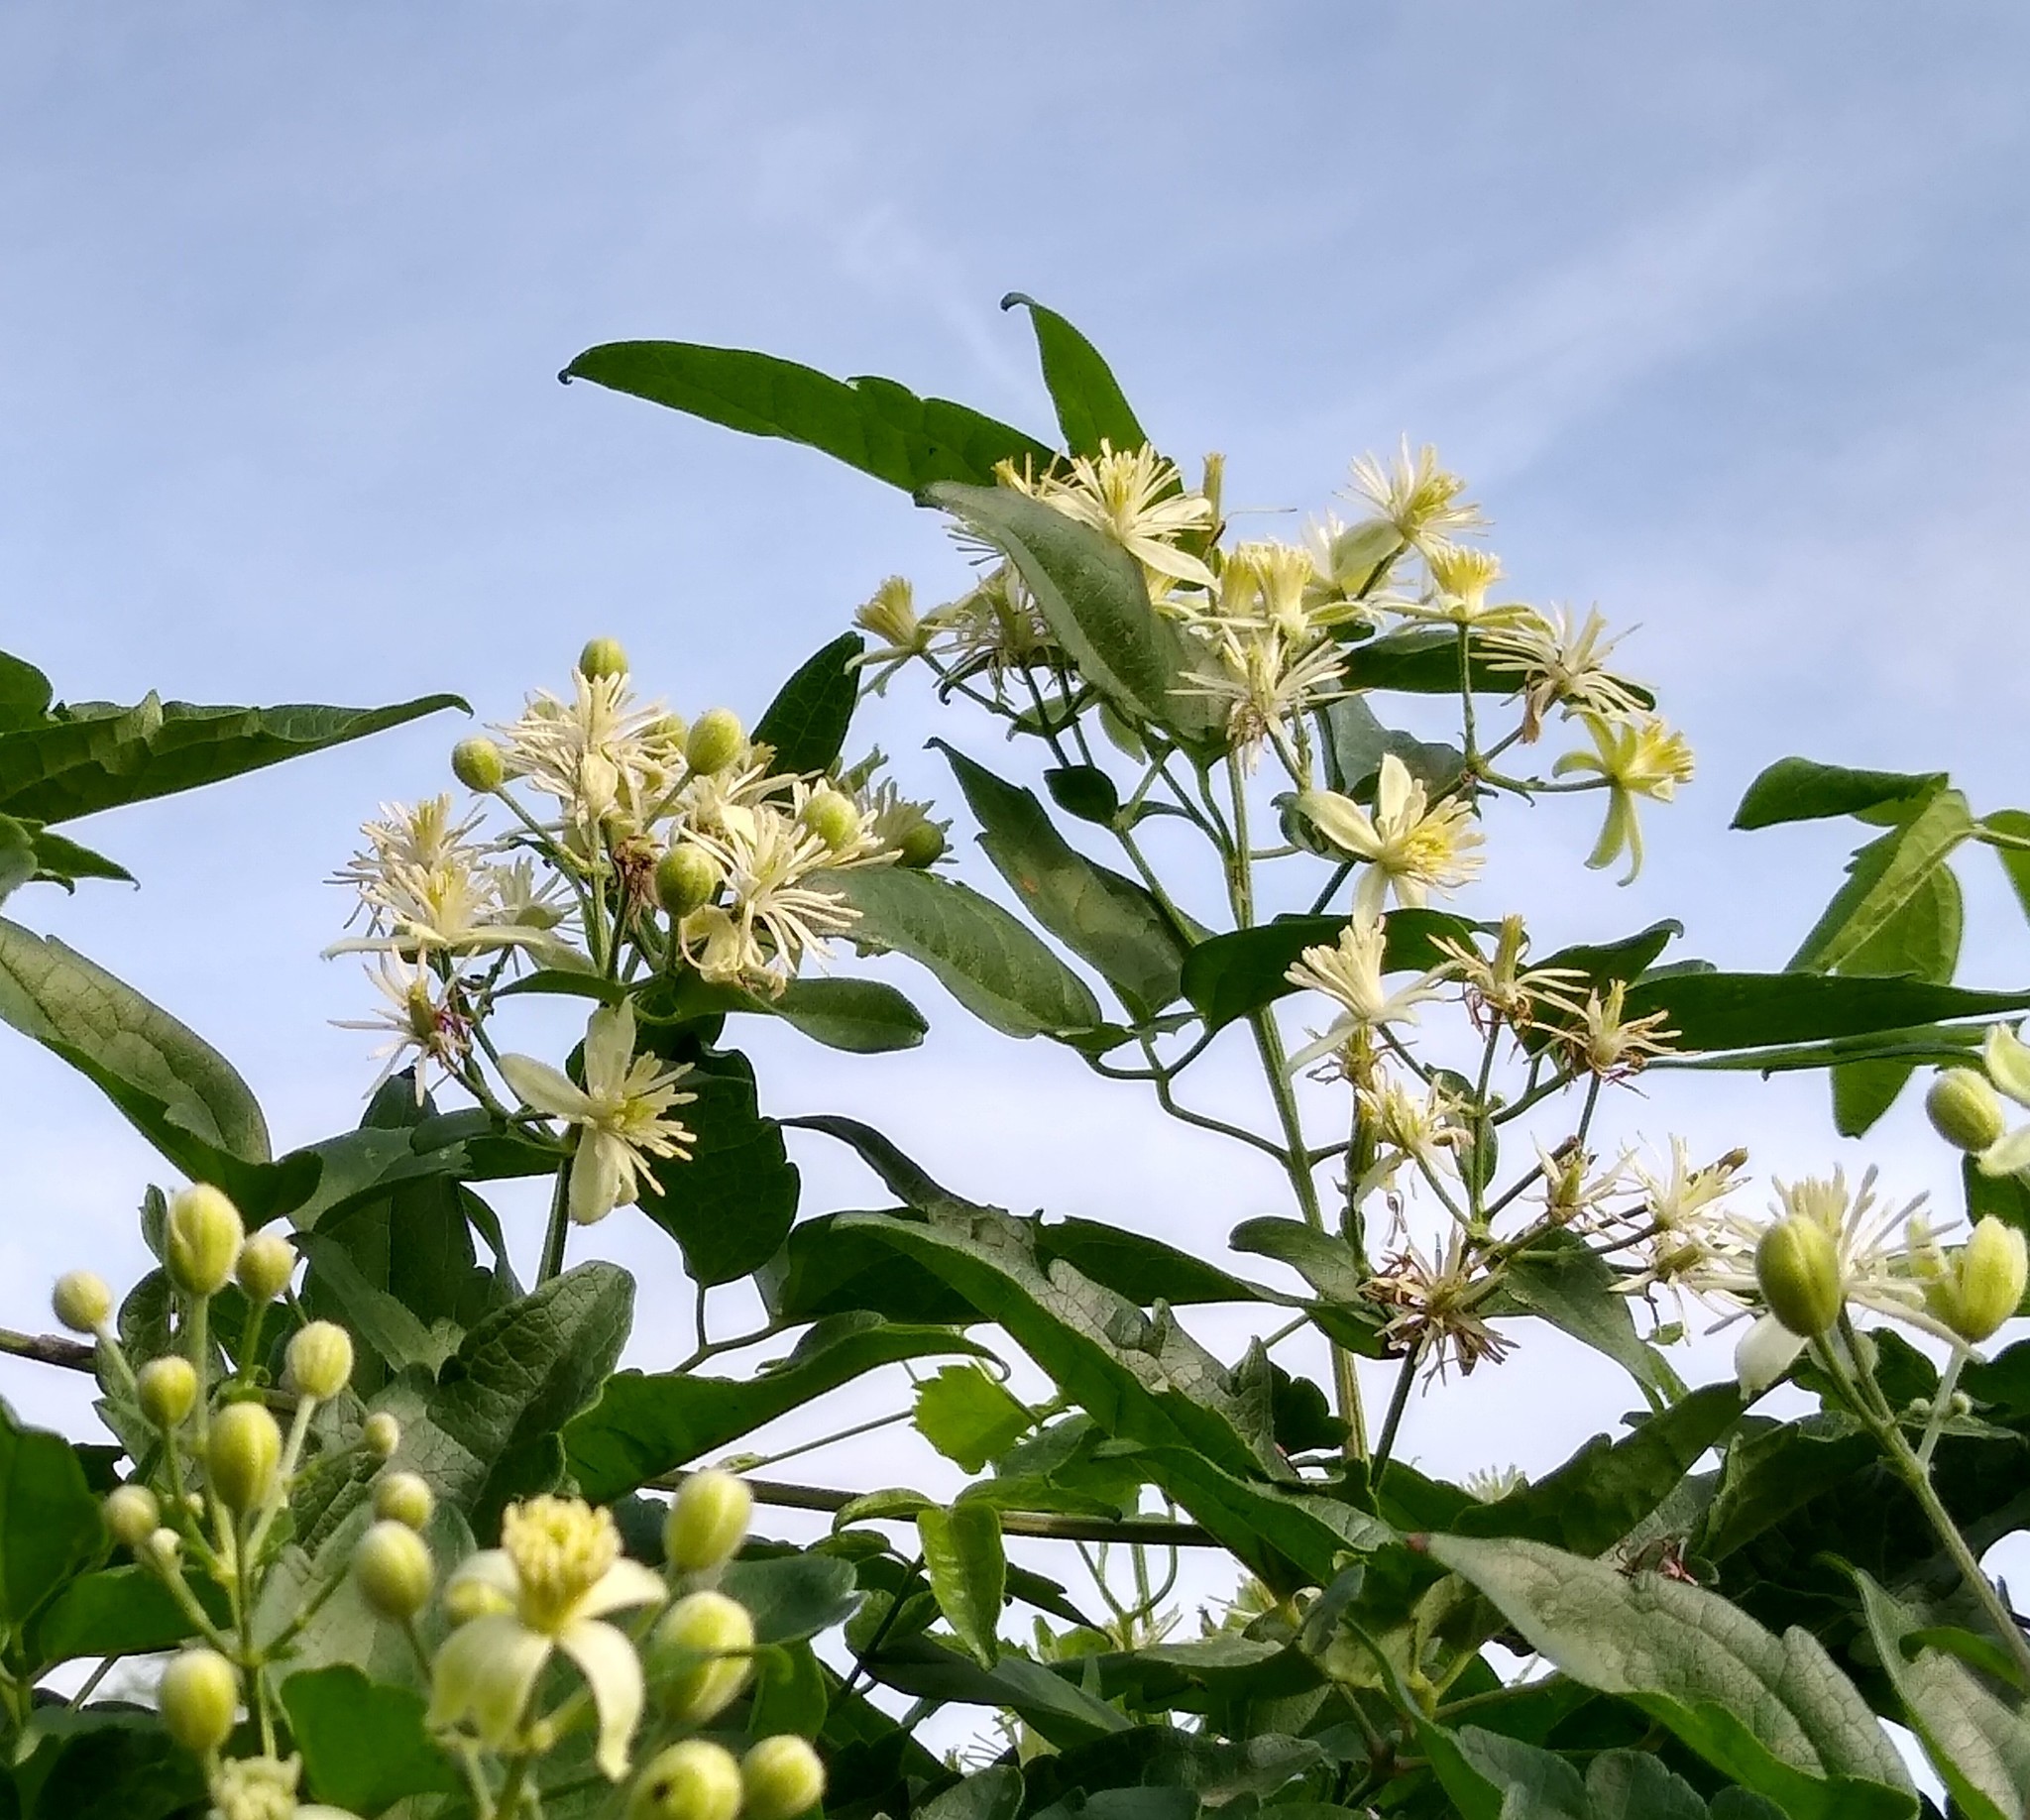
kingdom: Plantae
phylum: Tracheophyta
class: Magnoliopsida
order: Ranunculales
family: Ranunculaceae
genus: Clematis
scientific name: Clematis vitalba
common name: Evergreen clematis
